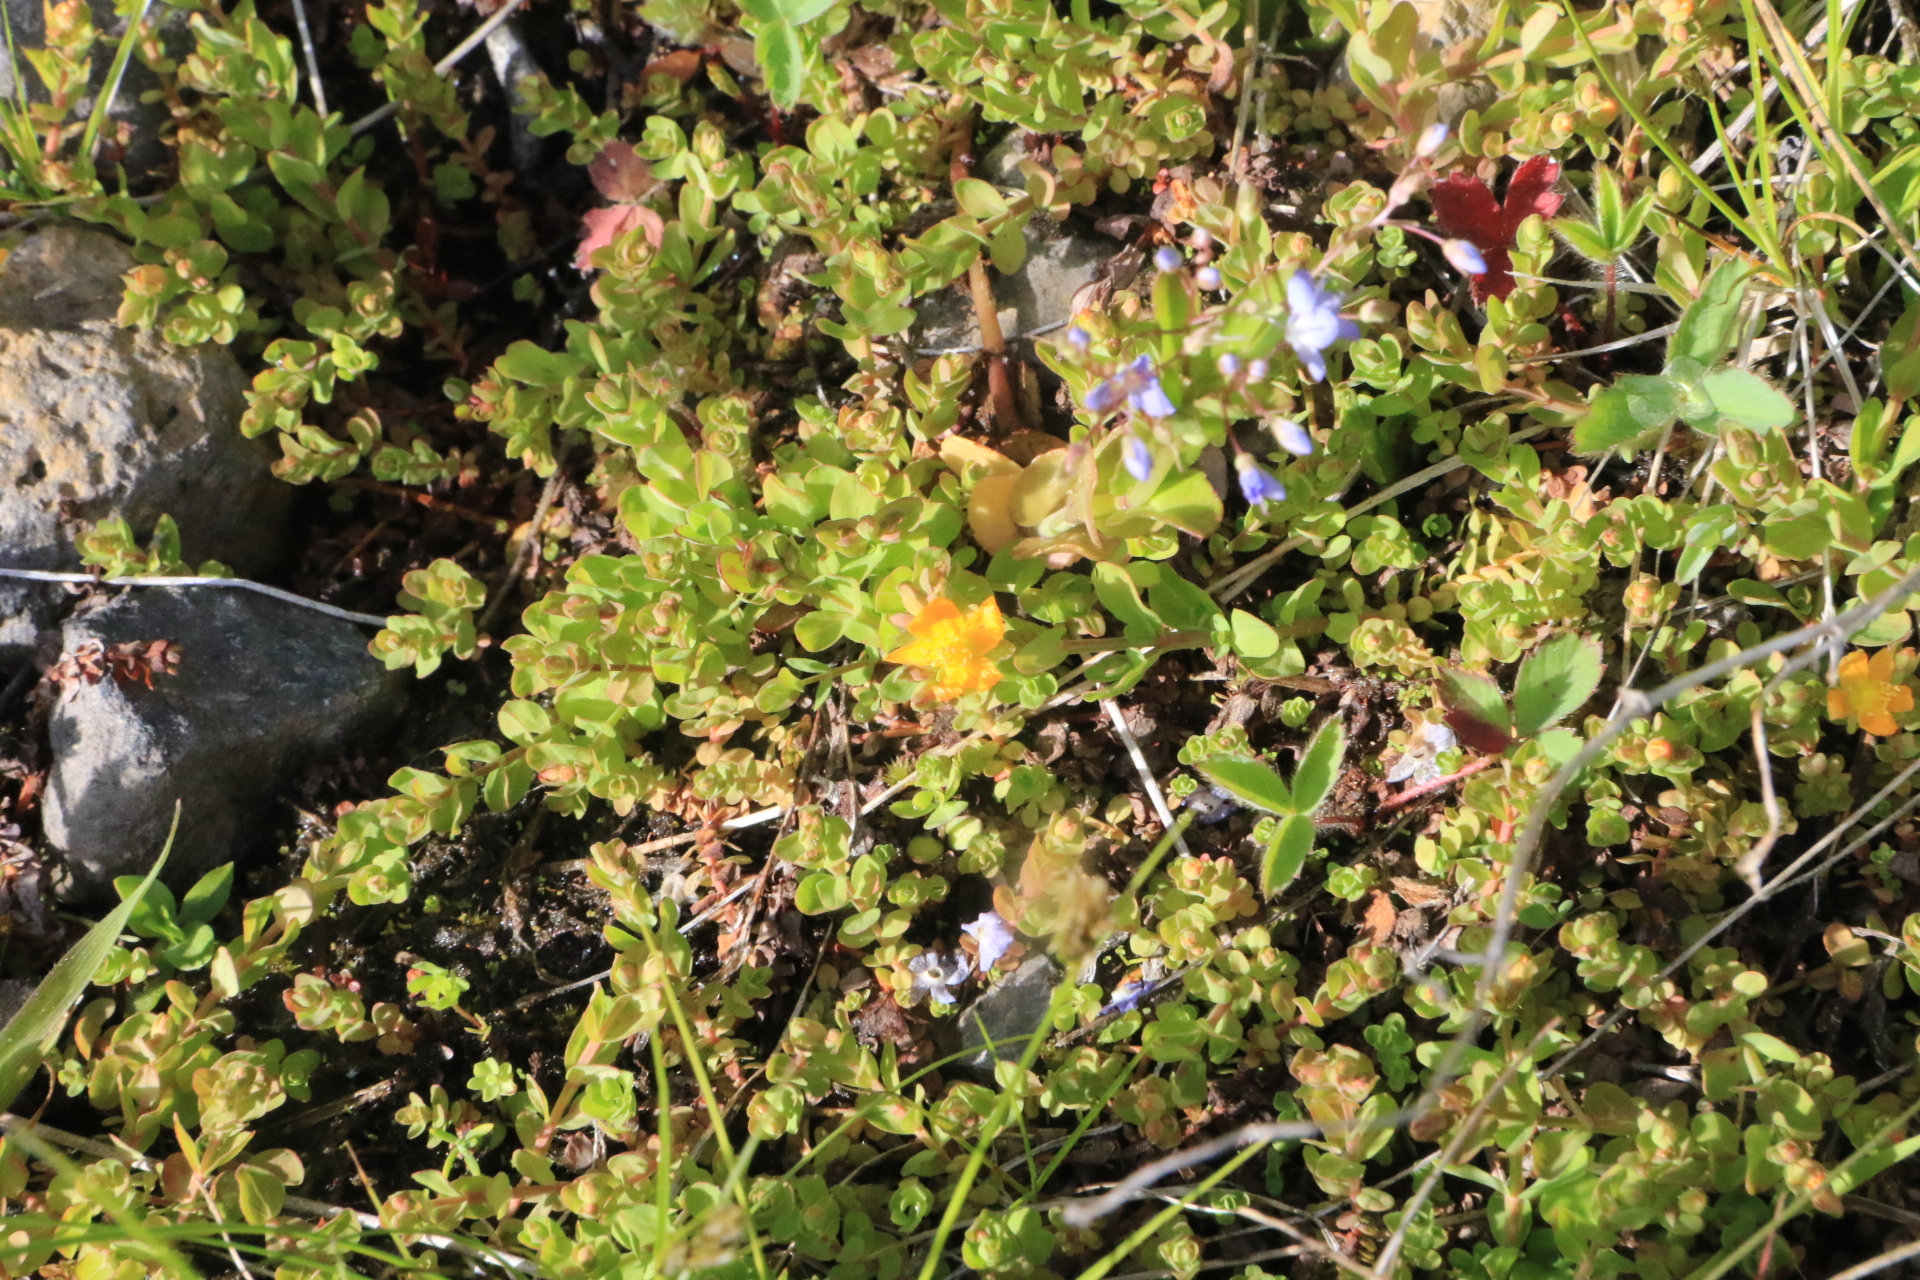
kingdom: Plantae
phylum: Tracheophyta
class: Magnoliopsida
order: Malpighiales
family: Hypericaceae
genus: Hypericum
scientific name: Hypericum anagalloides
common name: Bog st. john's-wort
